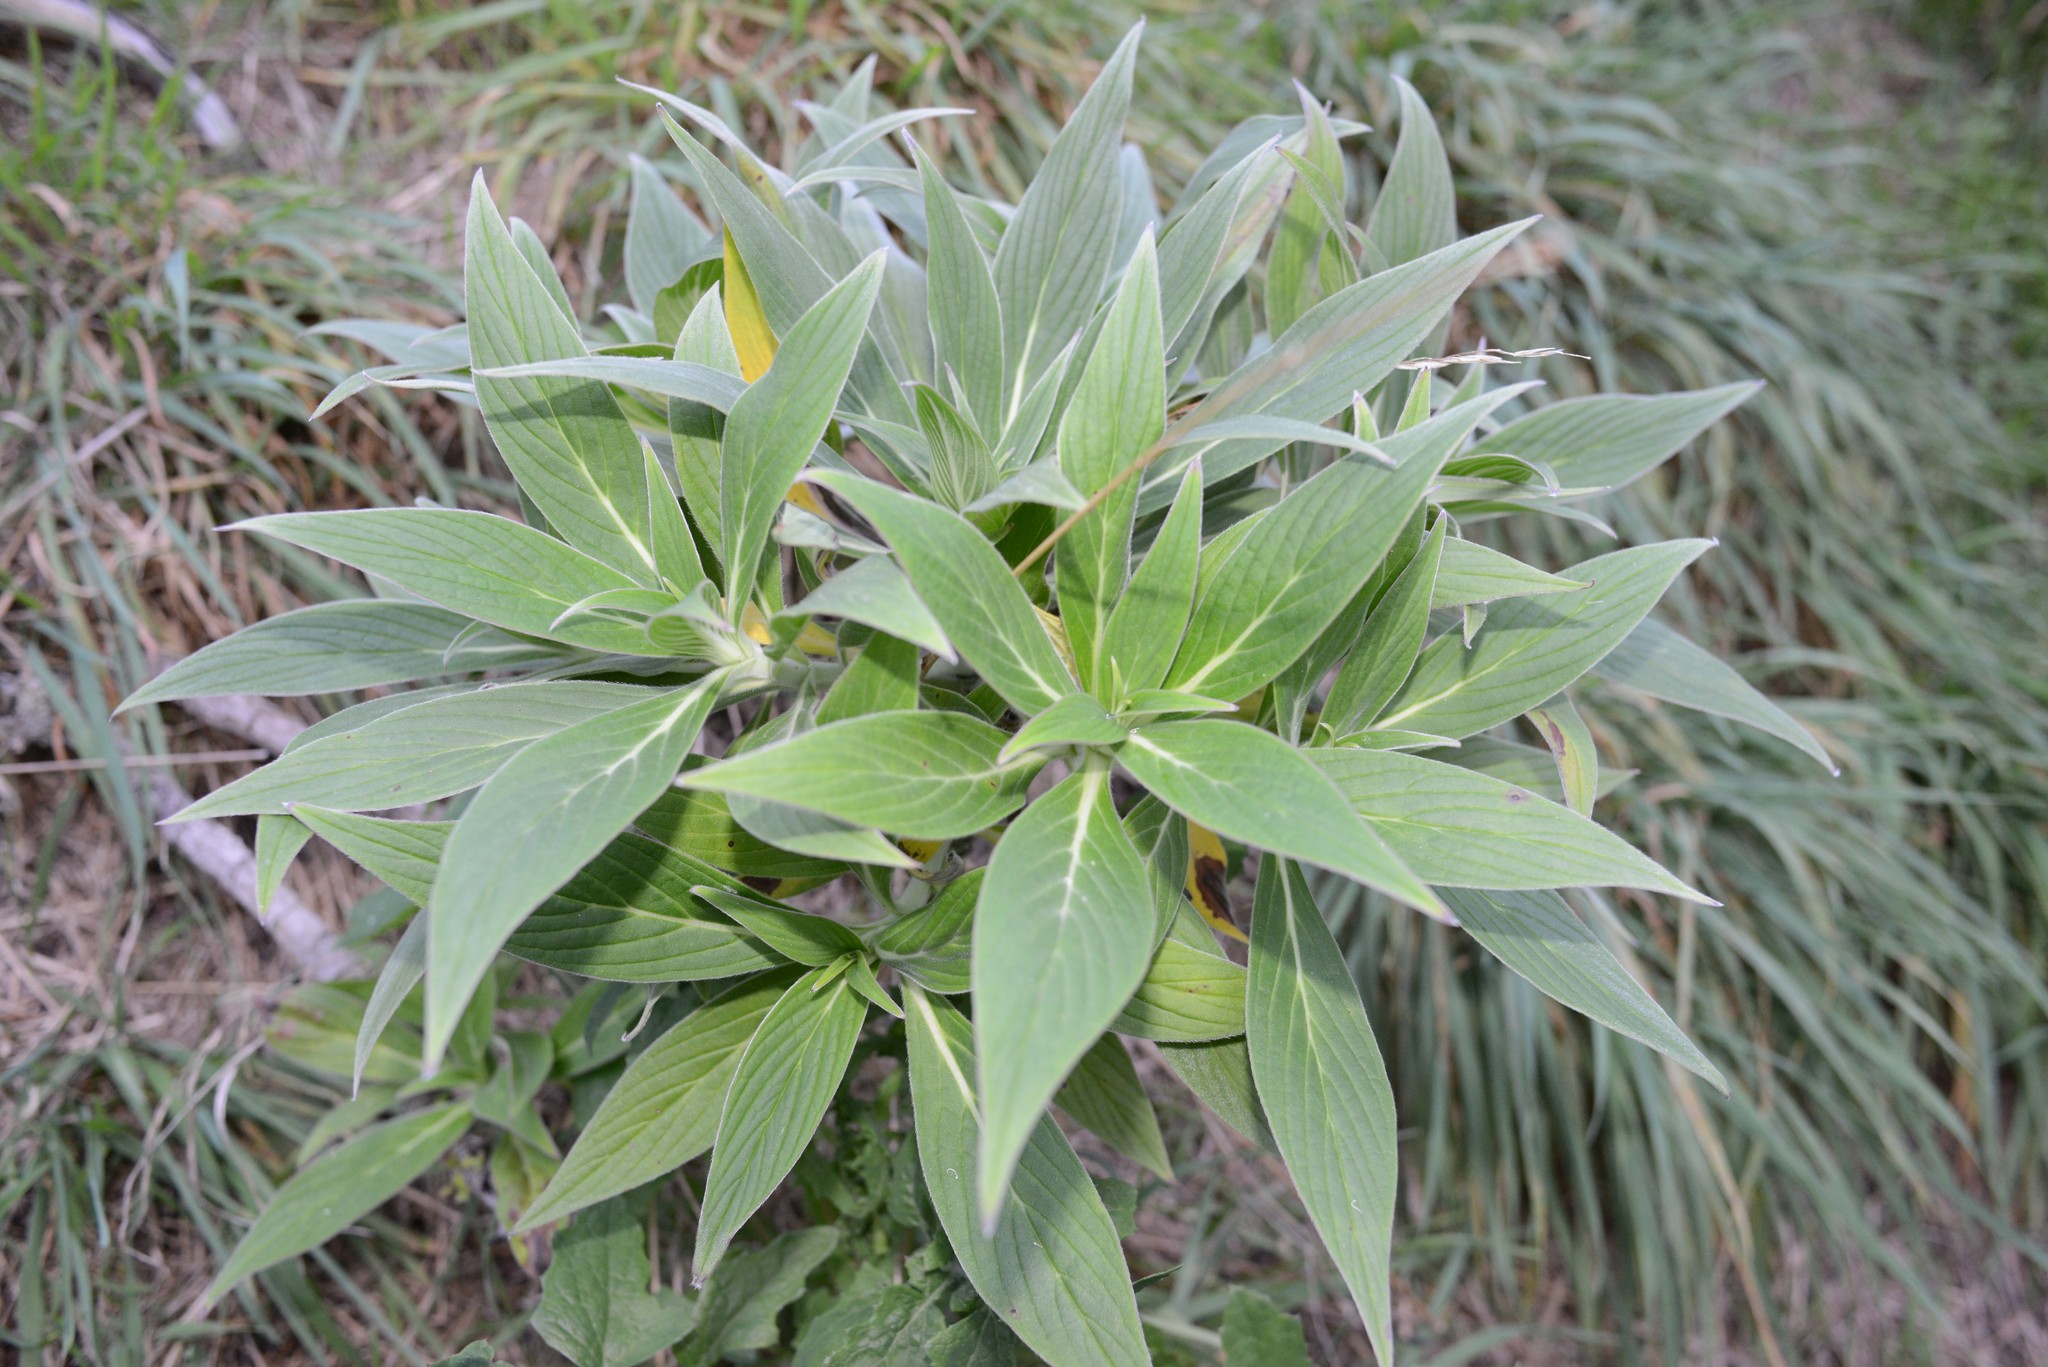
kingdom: Plantae
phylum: Tracheophyta
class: Magnoliopsida
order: Boraginales
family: Boraginaceae
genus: Echium
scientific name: Echium candicans
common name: Pride of madeira
